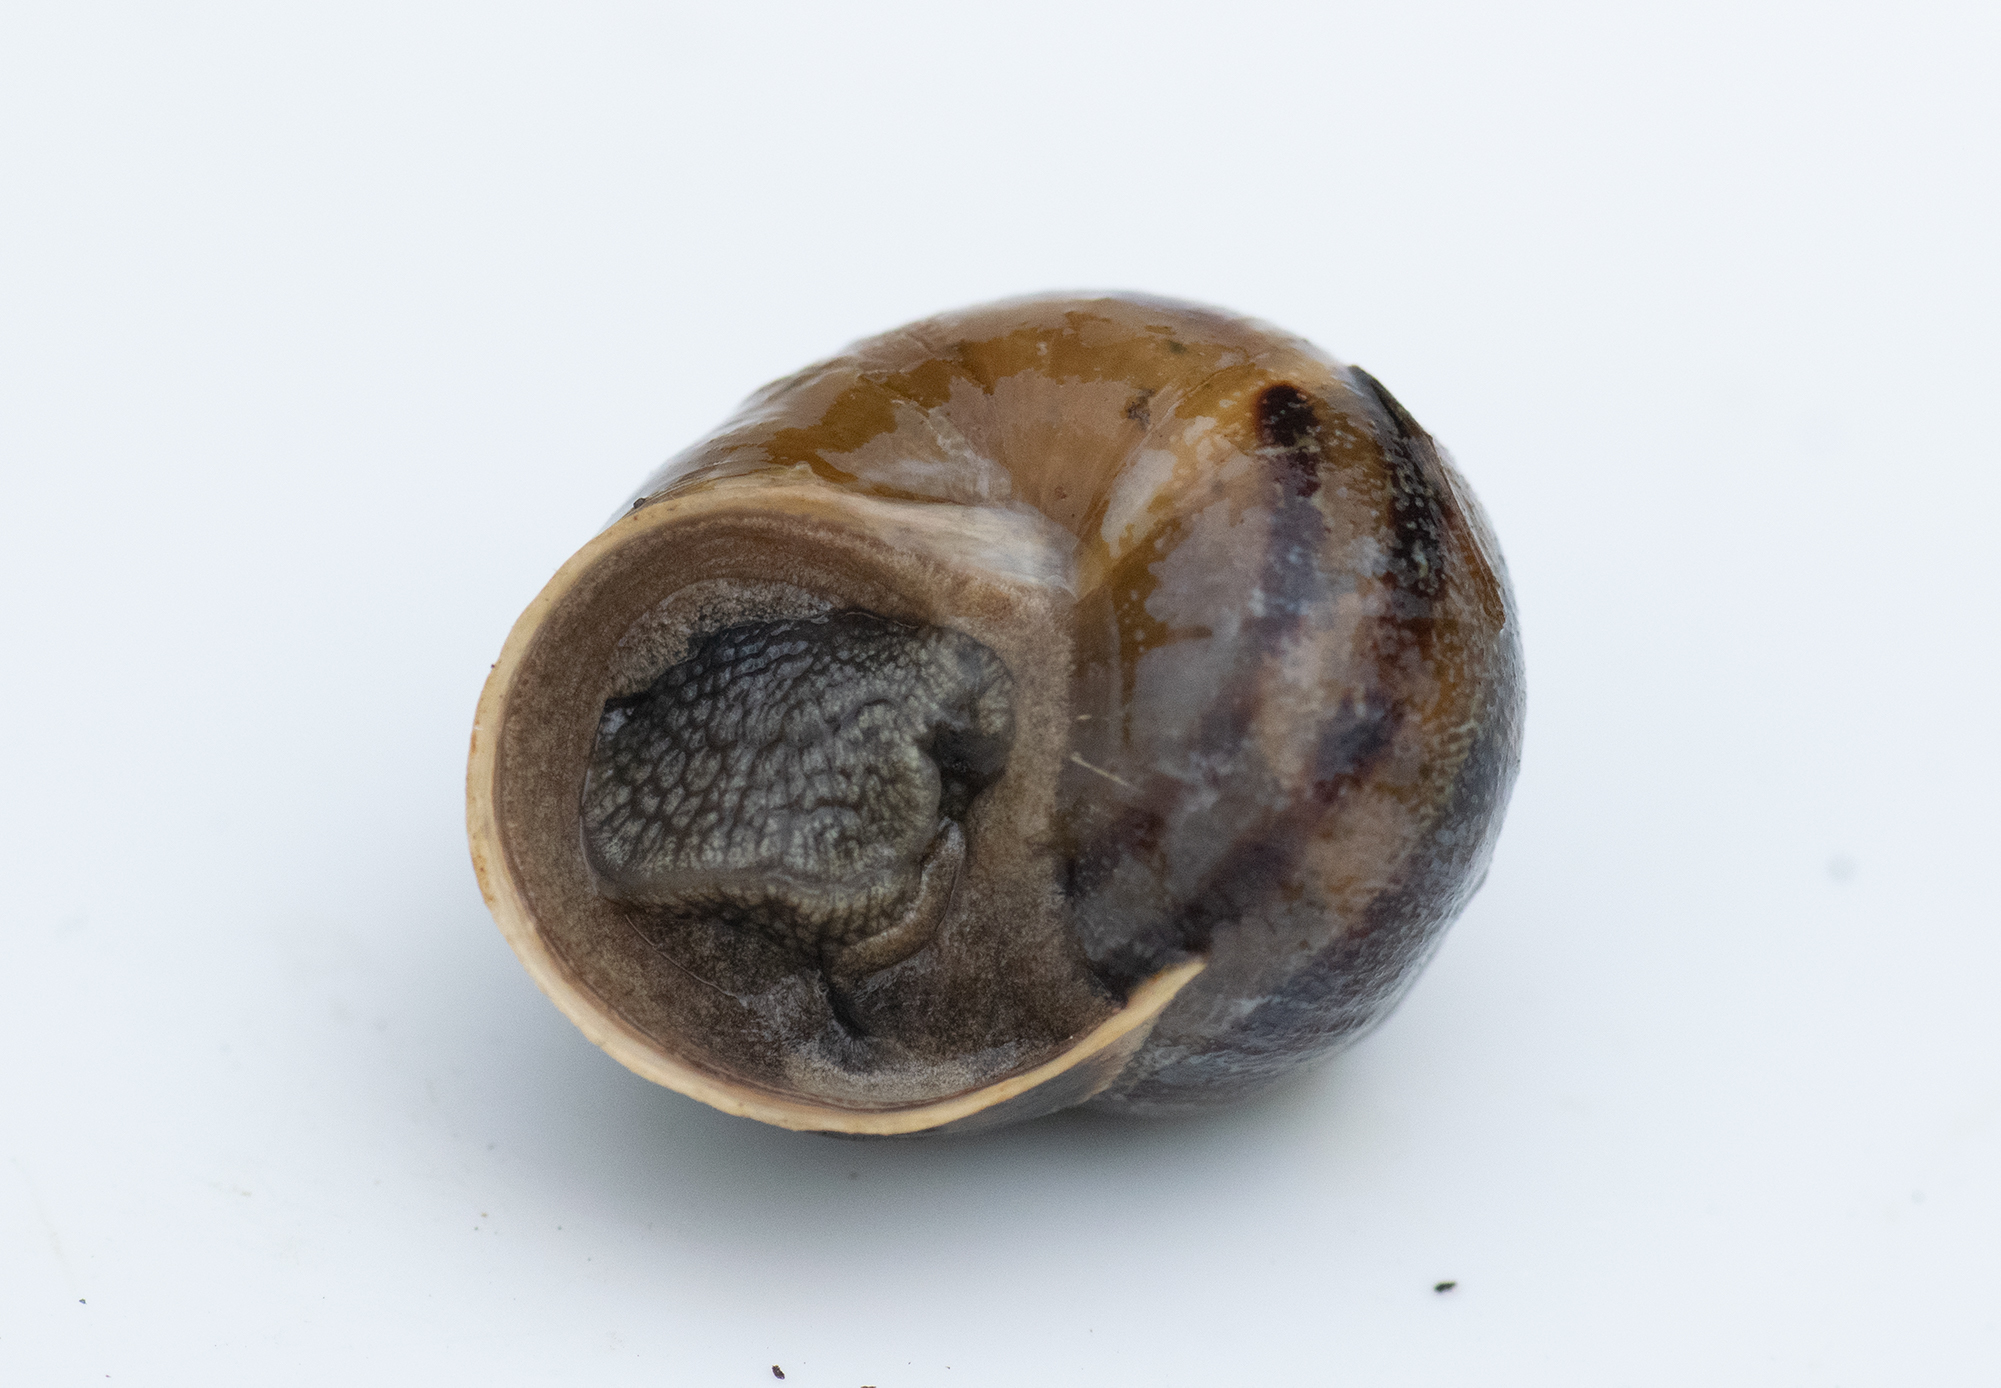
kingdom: Animalia
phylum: Mollusca
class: Gastropoda
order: Stylommatophora
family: Helicidae
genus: Cornu
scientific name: Cornu aspersum
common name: Brown garden snail
